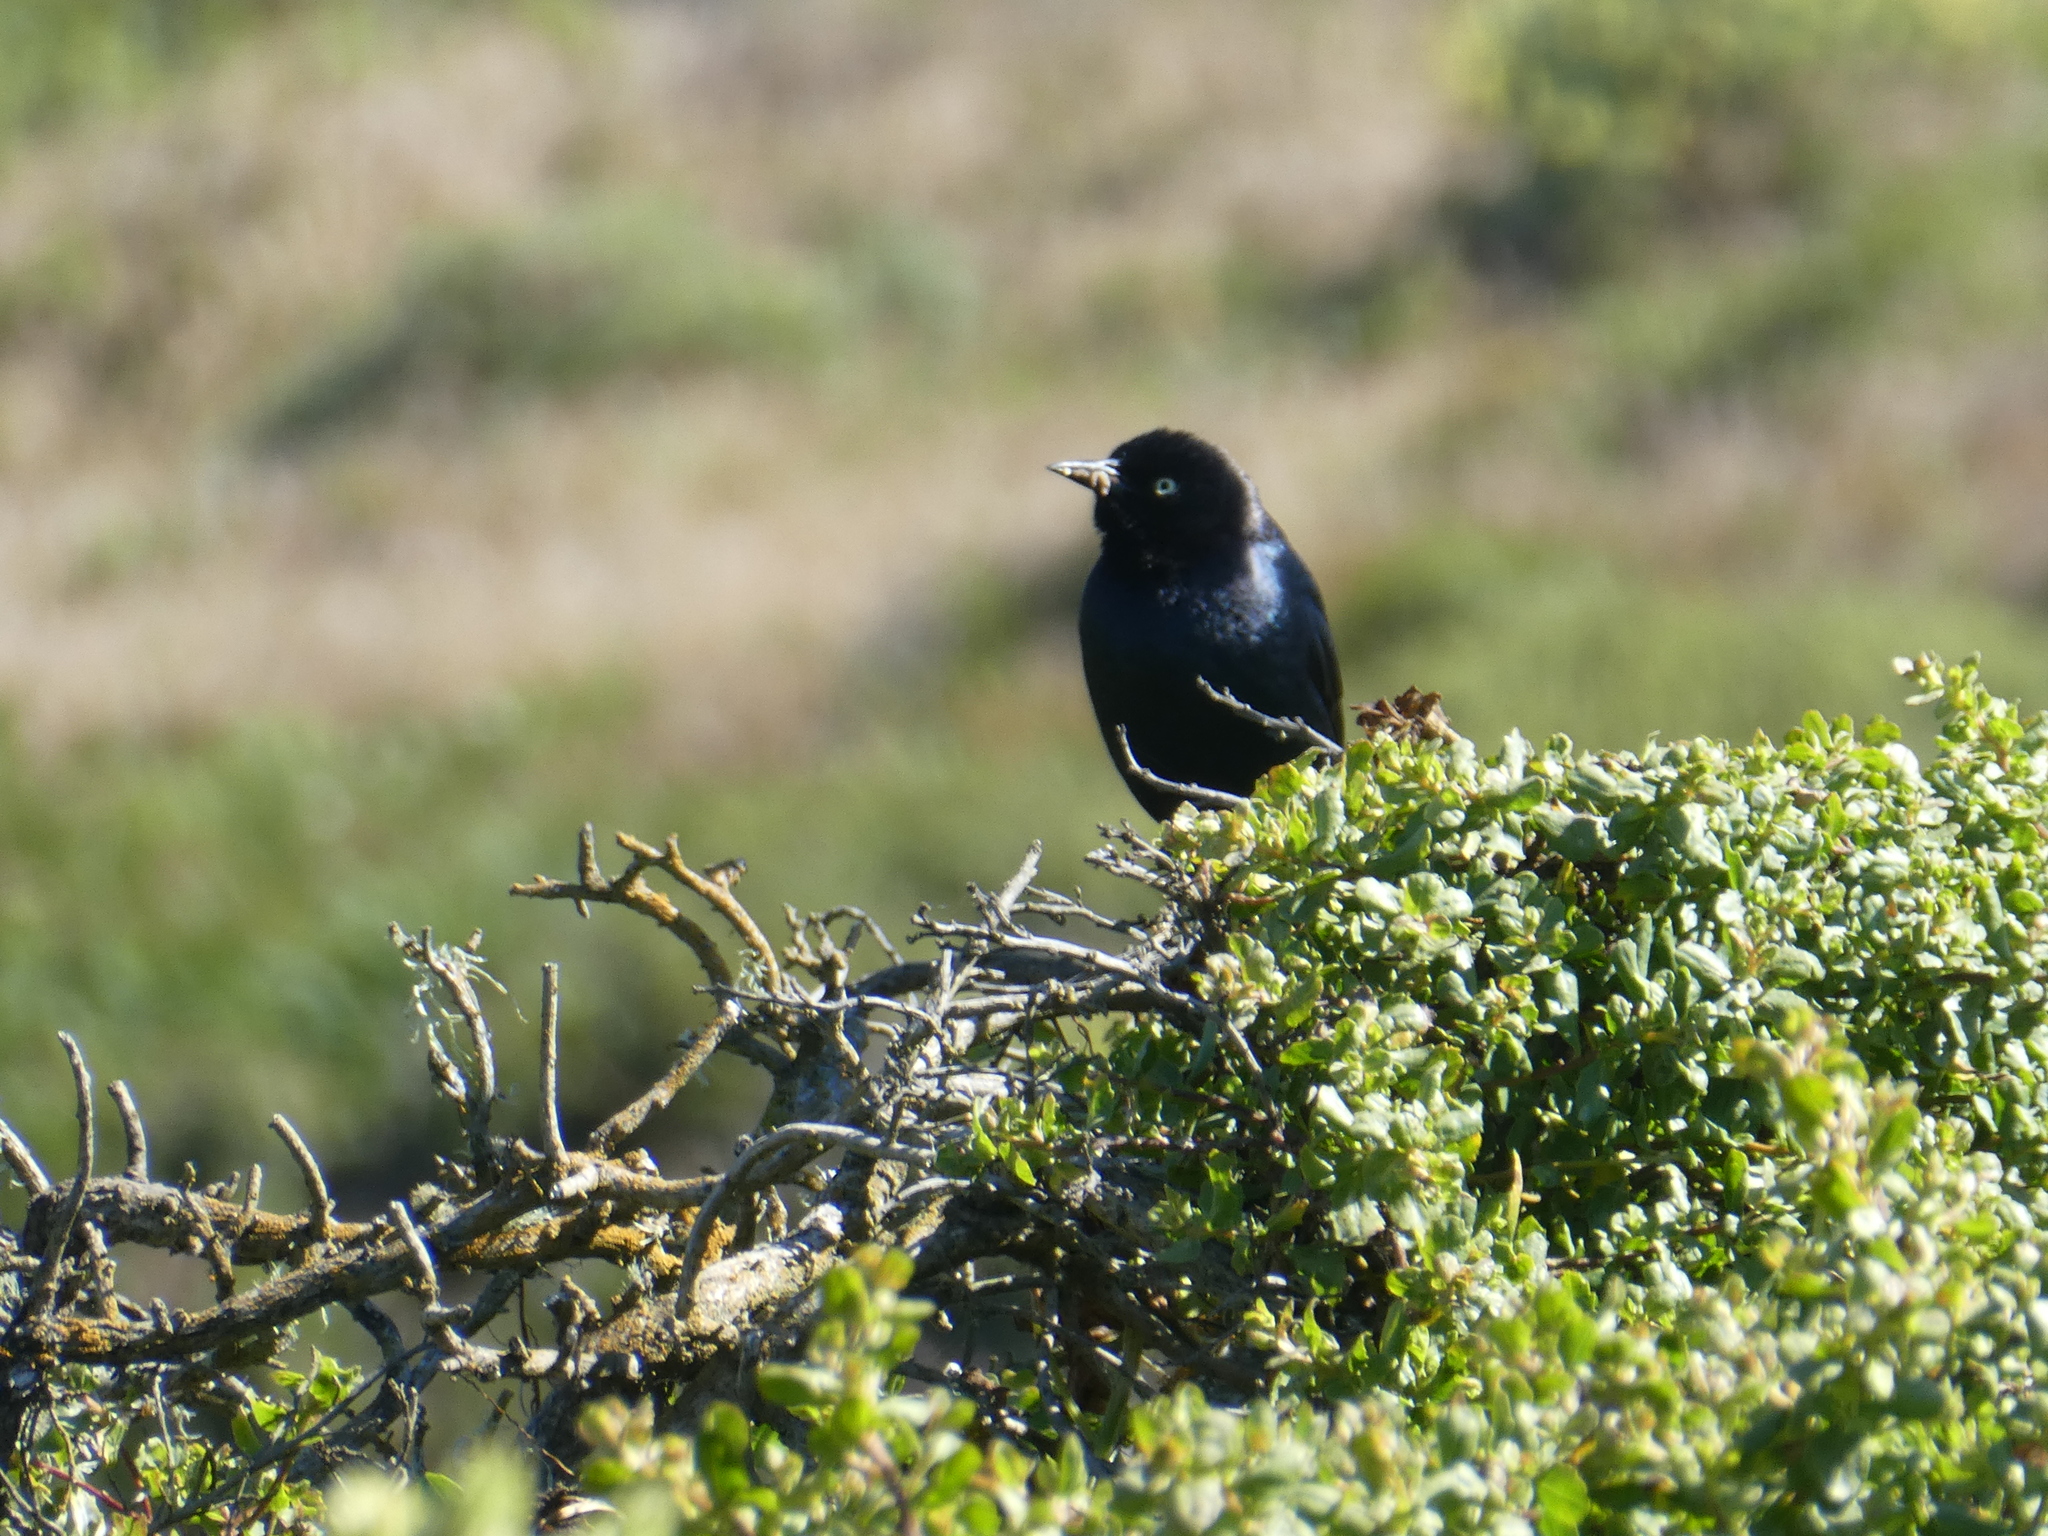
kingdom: Animalia
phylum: Chordata
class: Aves
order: Passeriformes
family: Icteridae
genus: Euphagus
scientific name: Euphagus cyanocephalus
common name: Brewer's blackbird
